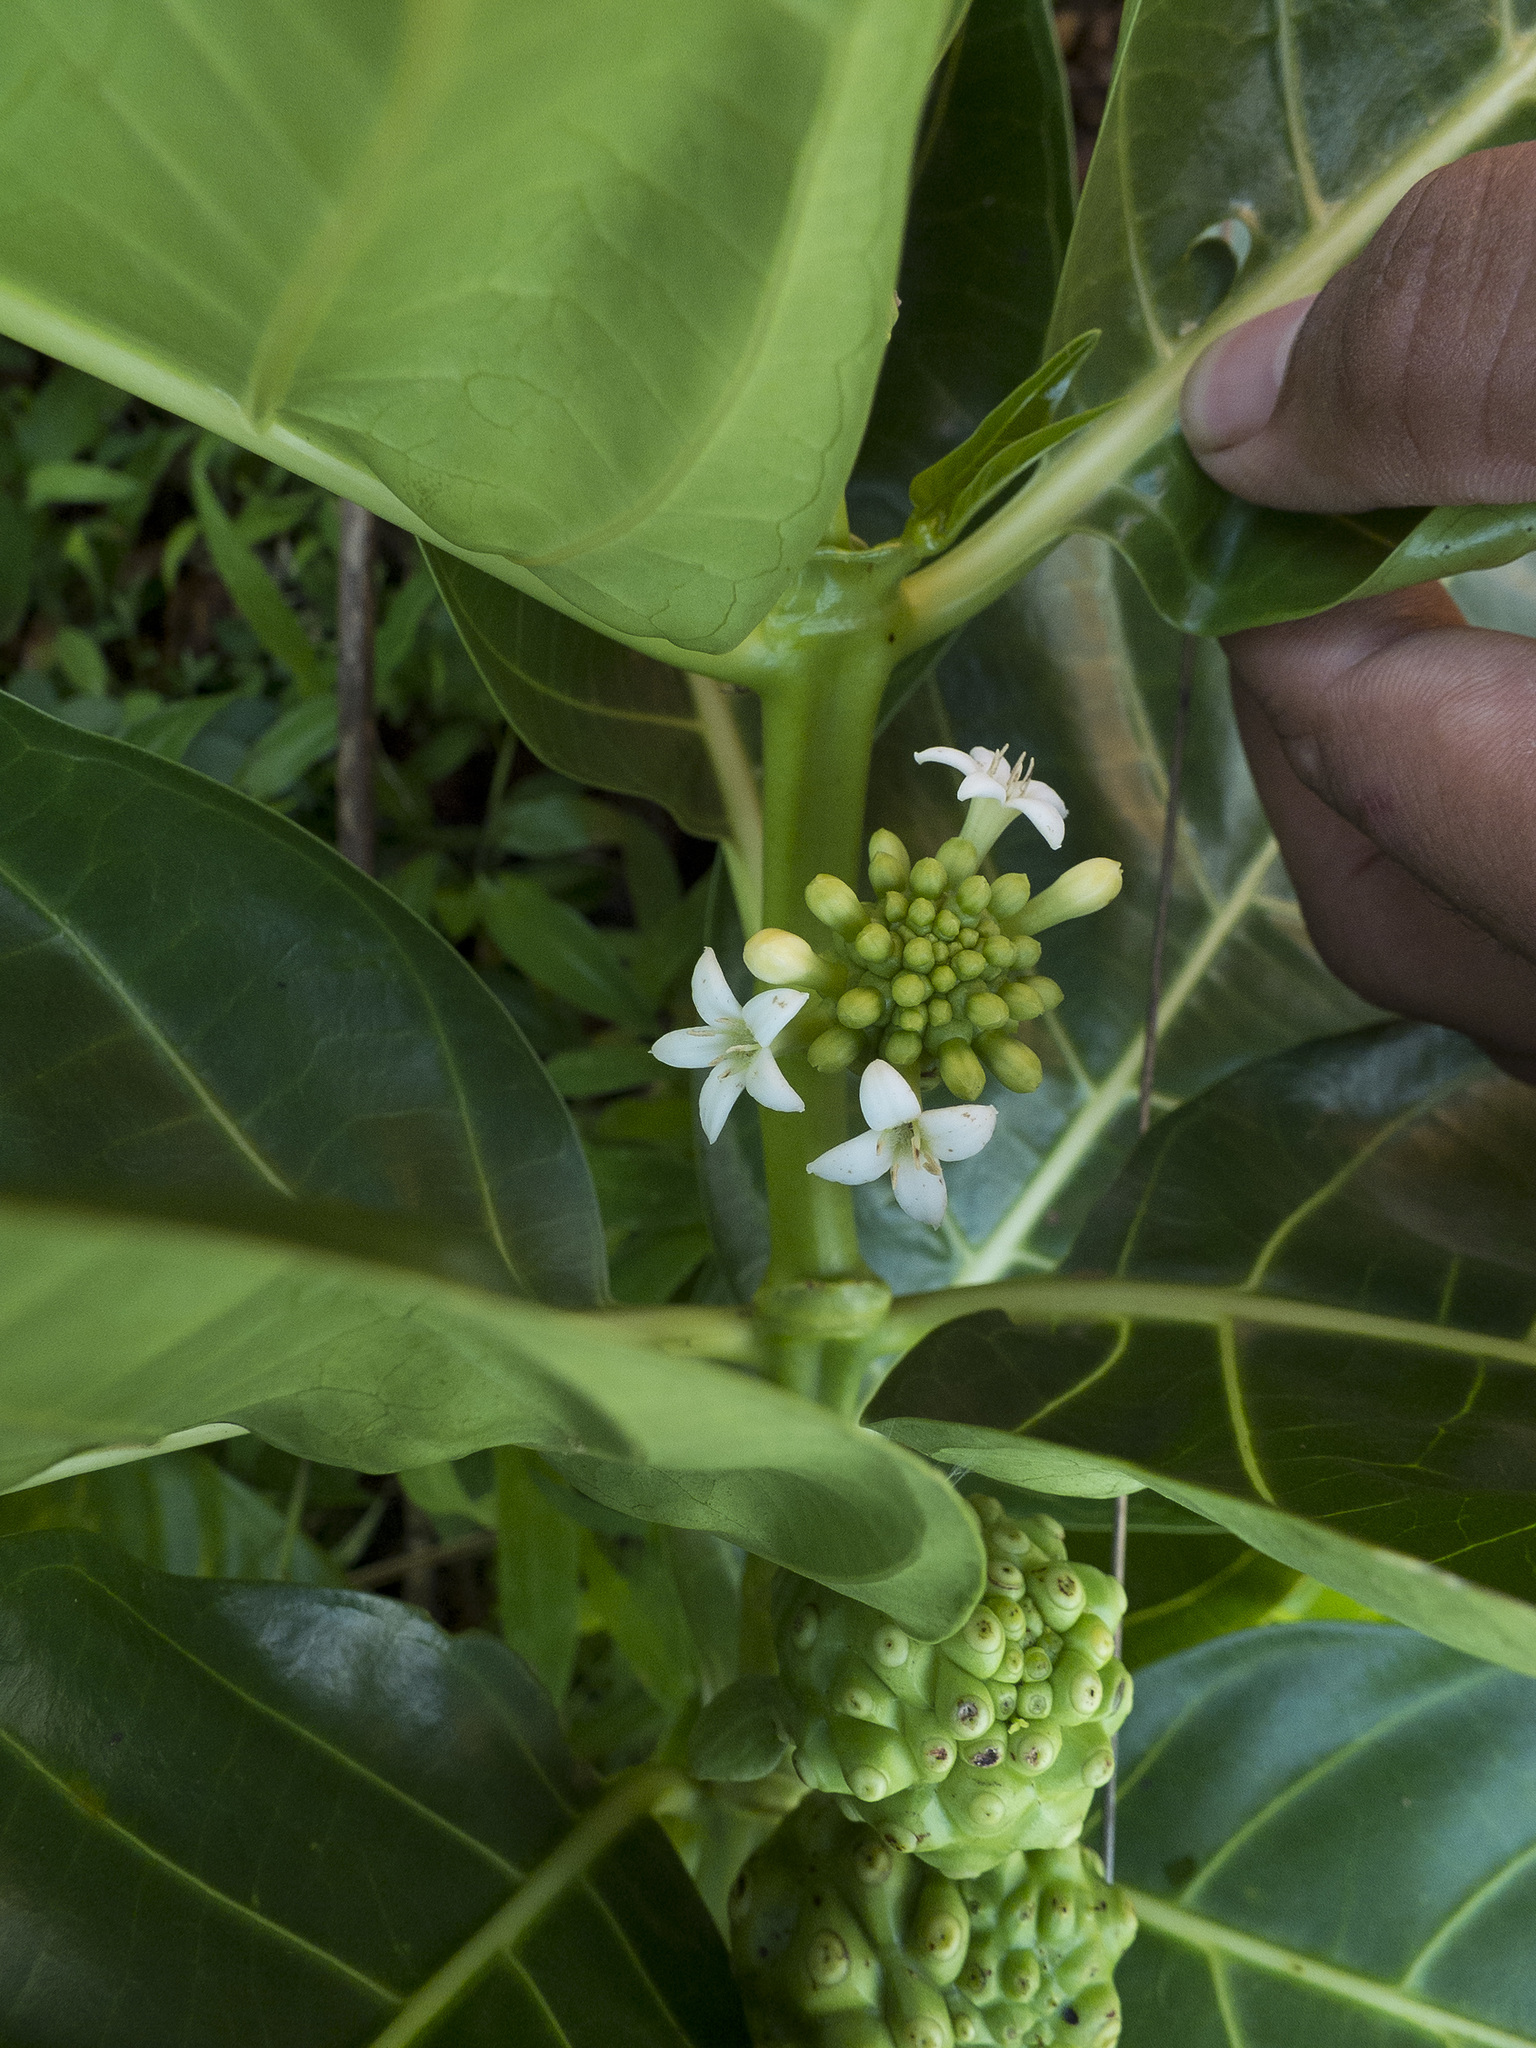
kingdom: Plantae
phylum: Tracheophyta
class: Magnoliopsida
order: Gentianales
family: Rubiaceae
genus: Morinda
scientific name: Morinda citrifolia
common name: Indian-mulberry
